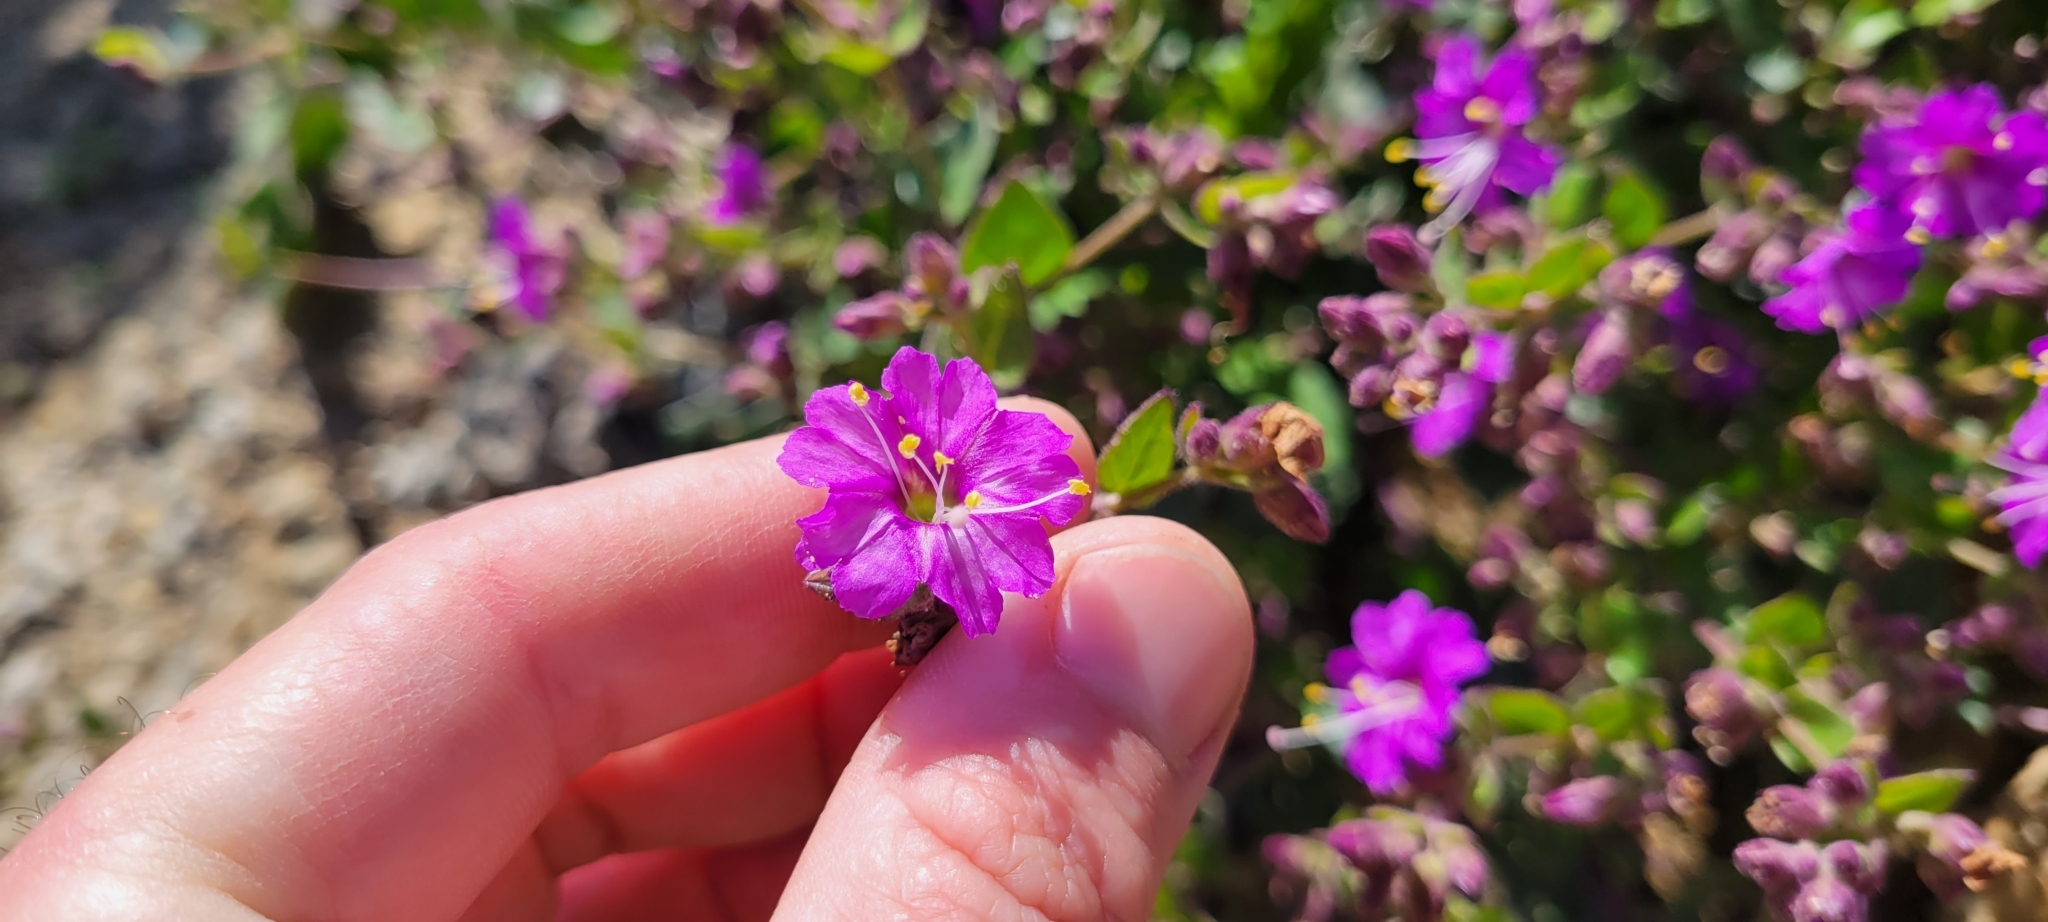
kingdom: Plantae
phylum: Tracheophyta
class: Magnoliopsida
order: Caryophyllales
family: Nyctaginaceae
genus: Mirabilis
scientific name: Mirabilis laevis
